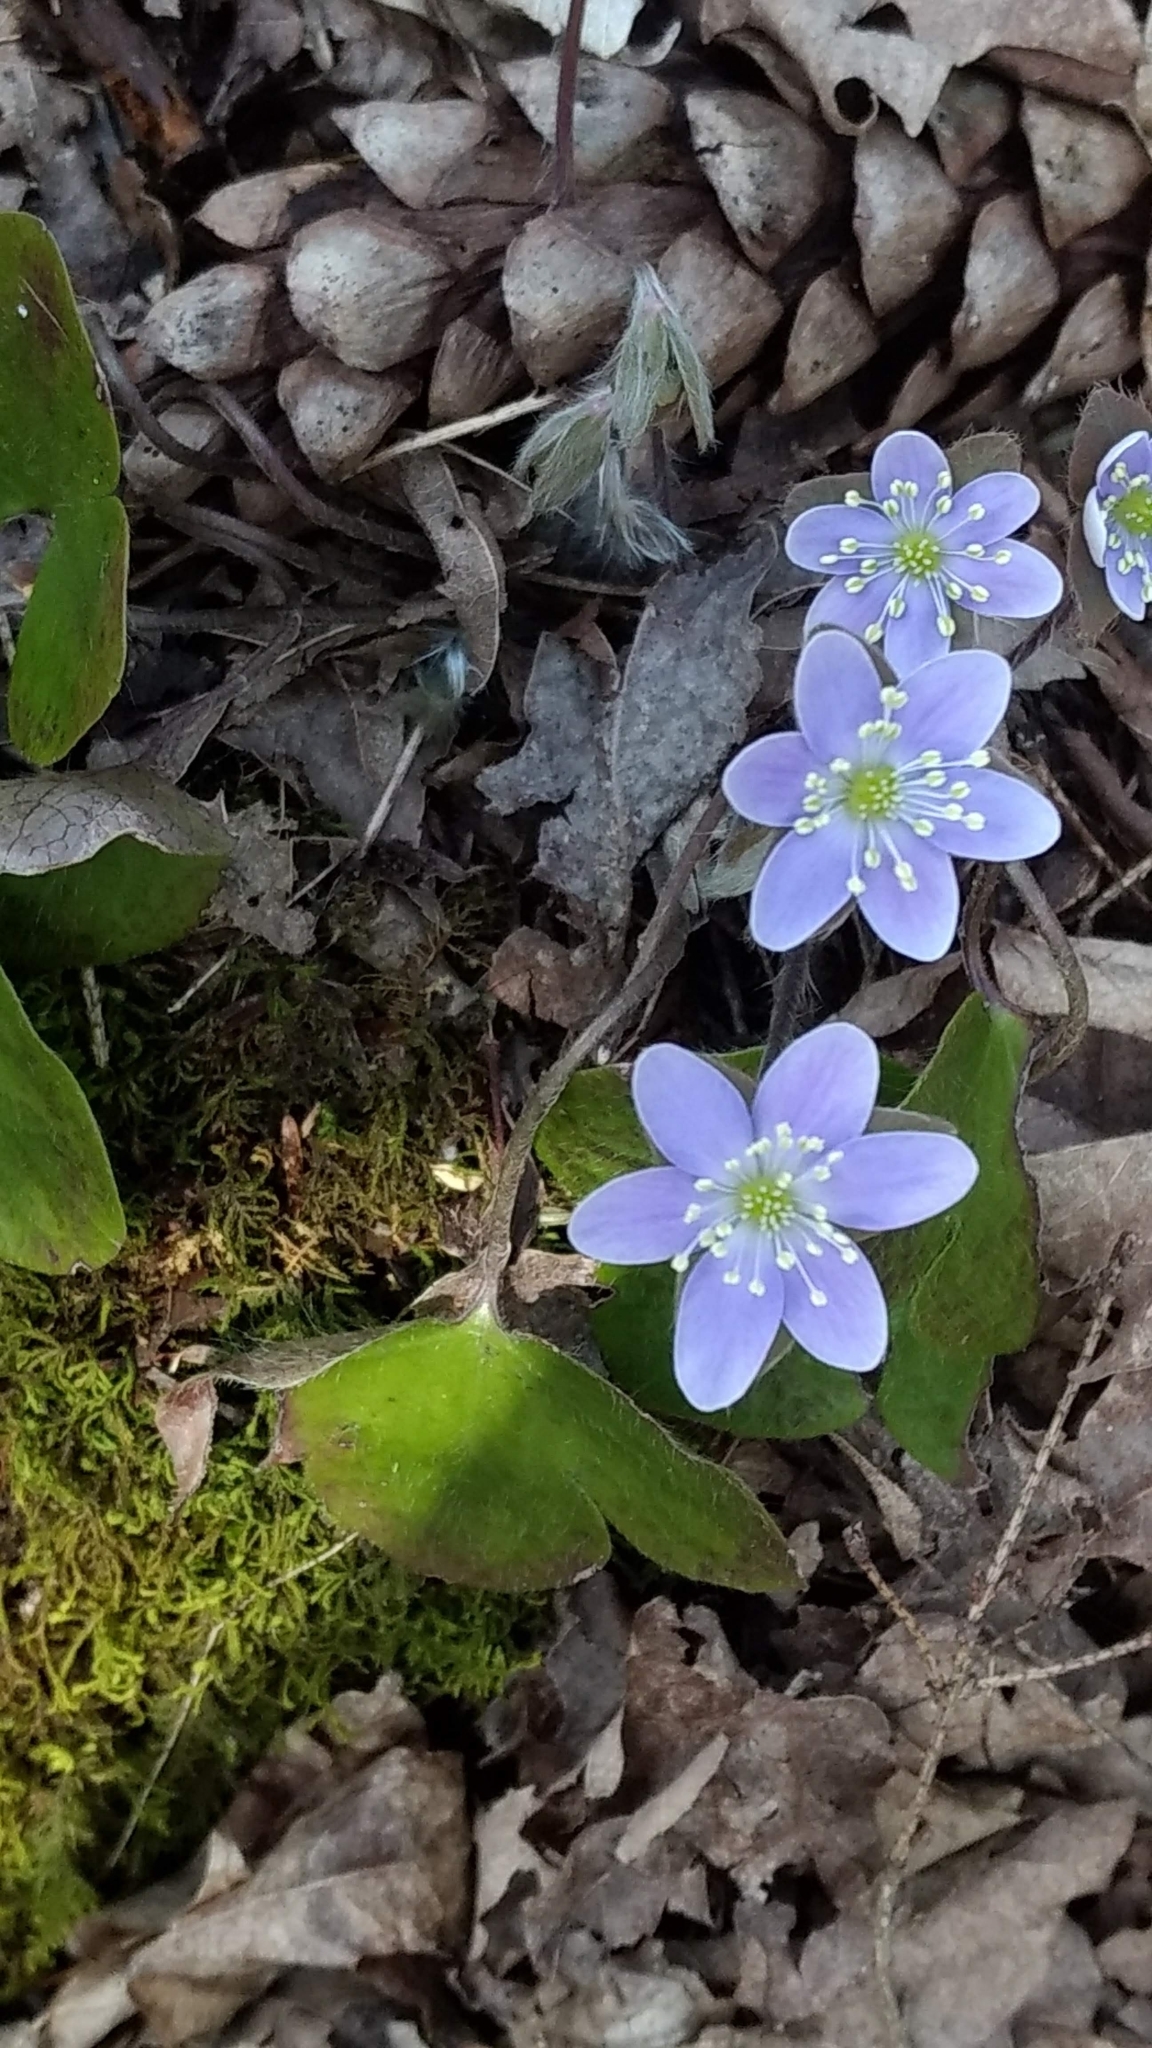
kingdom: Plantae
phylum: Tracheophyta
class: Magnoliopsida
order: Ranunculales
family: Ranunculaceae
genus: Hepatica
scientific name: Hepatica americana
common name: American hepatica
